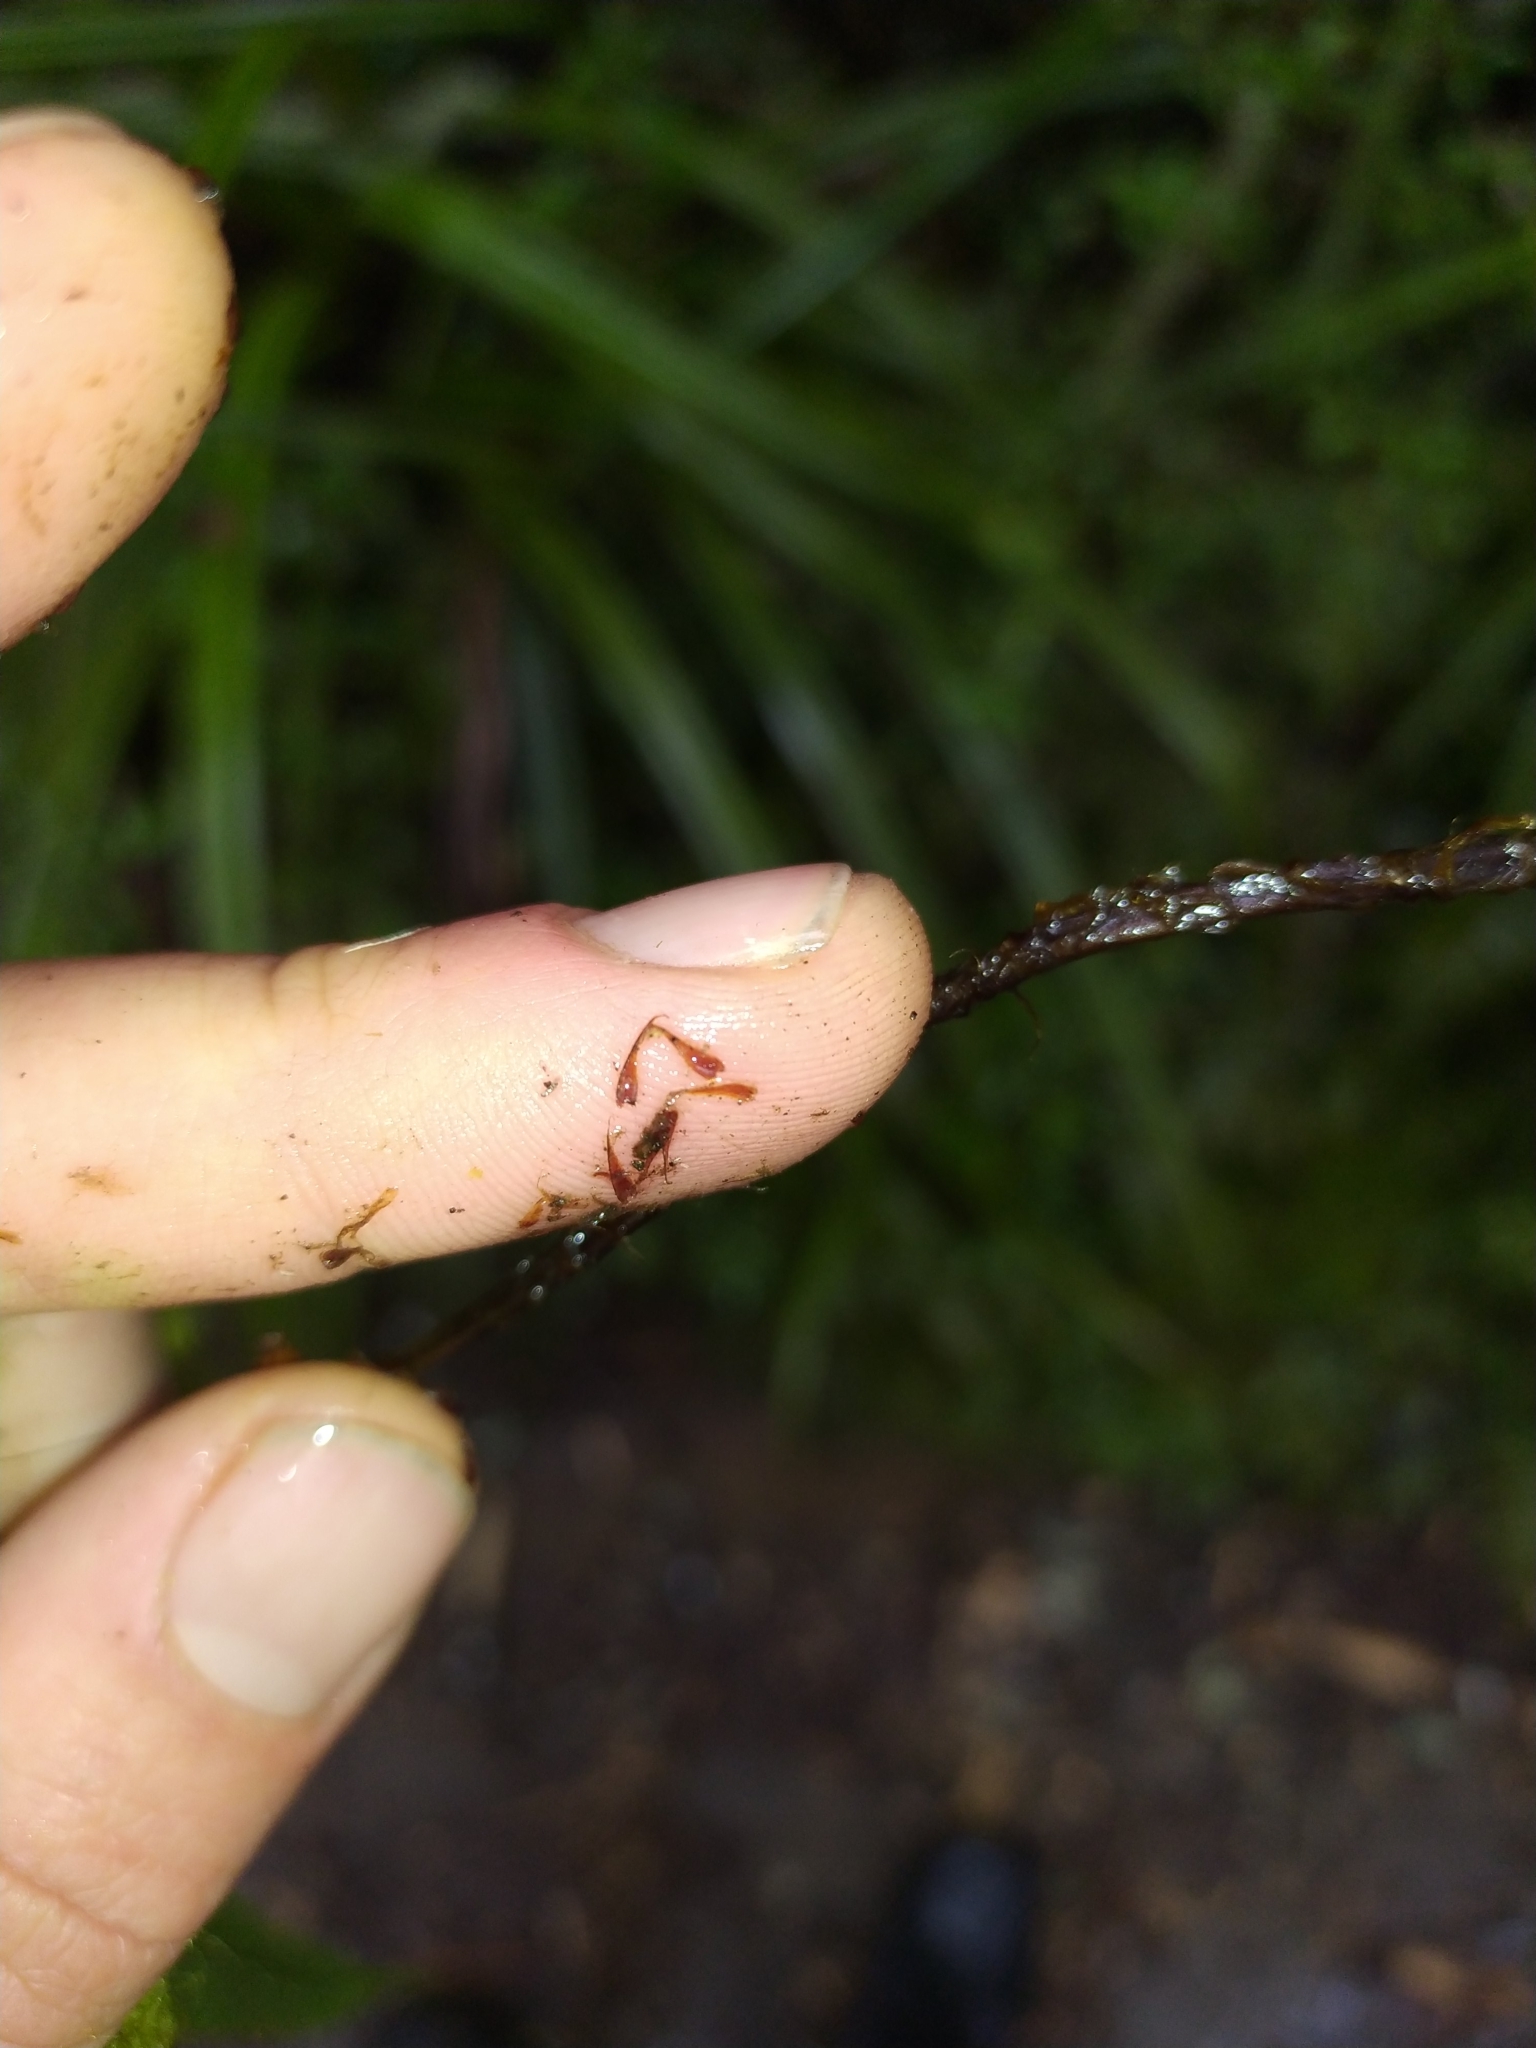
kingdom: Plantae
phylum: Tracheophyta
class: Polypodiopsida
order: Polypodiales
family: Blechnaceae
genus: Parablechnum
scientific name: Parablechnum procerum
